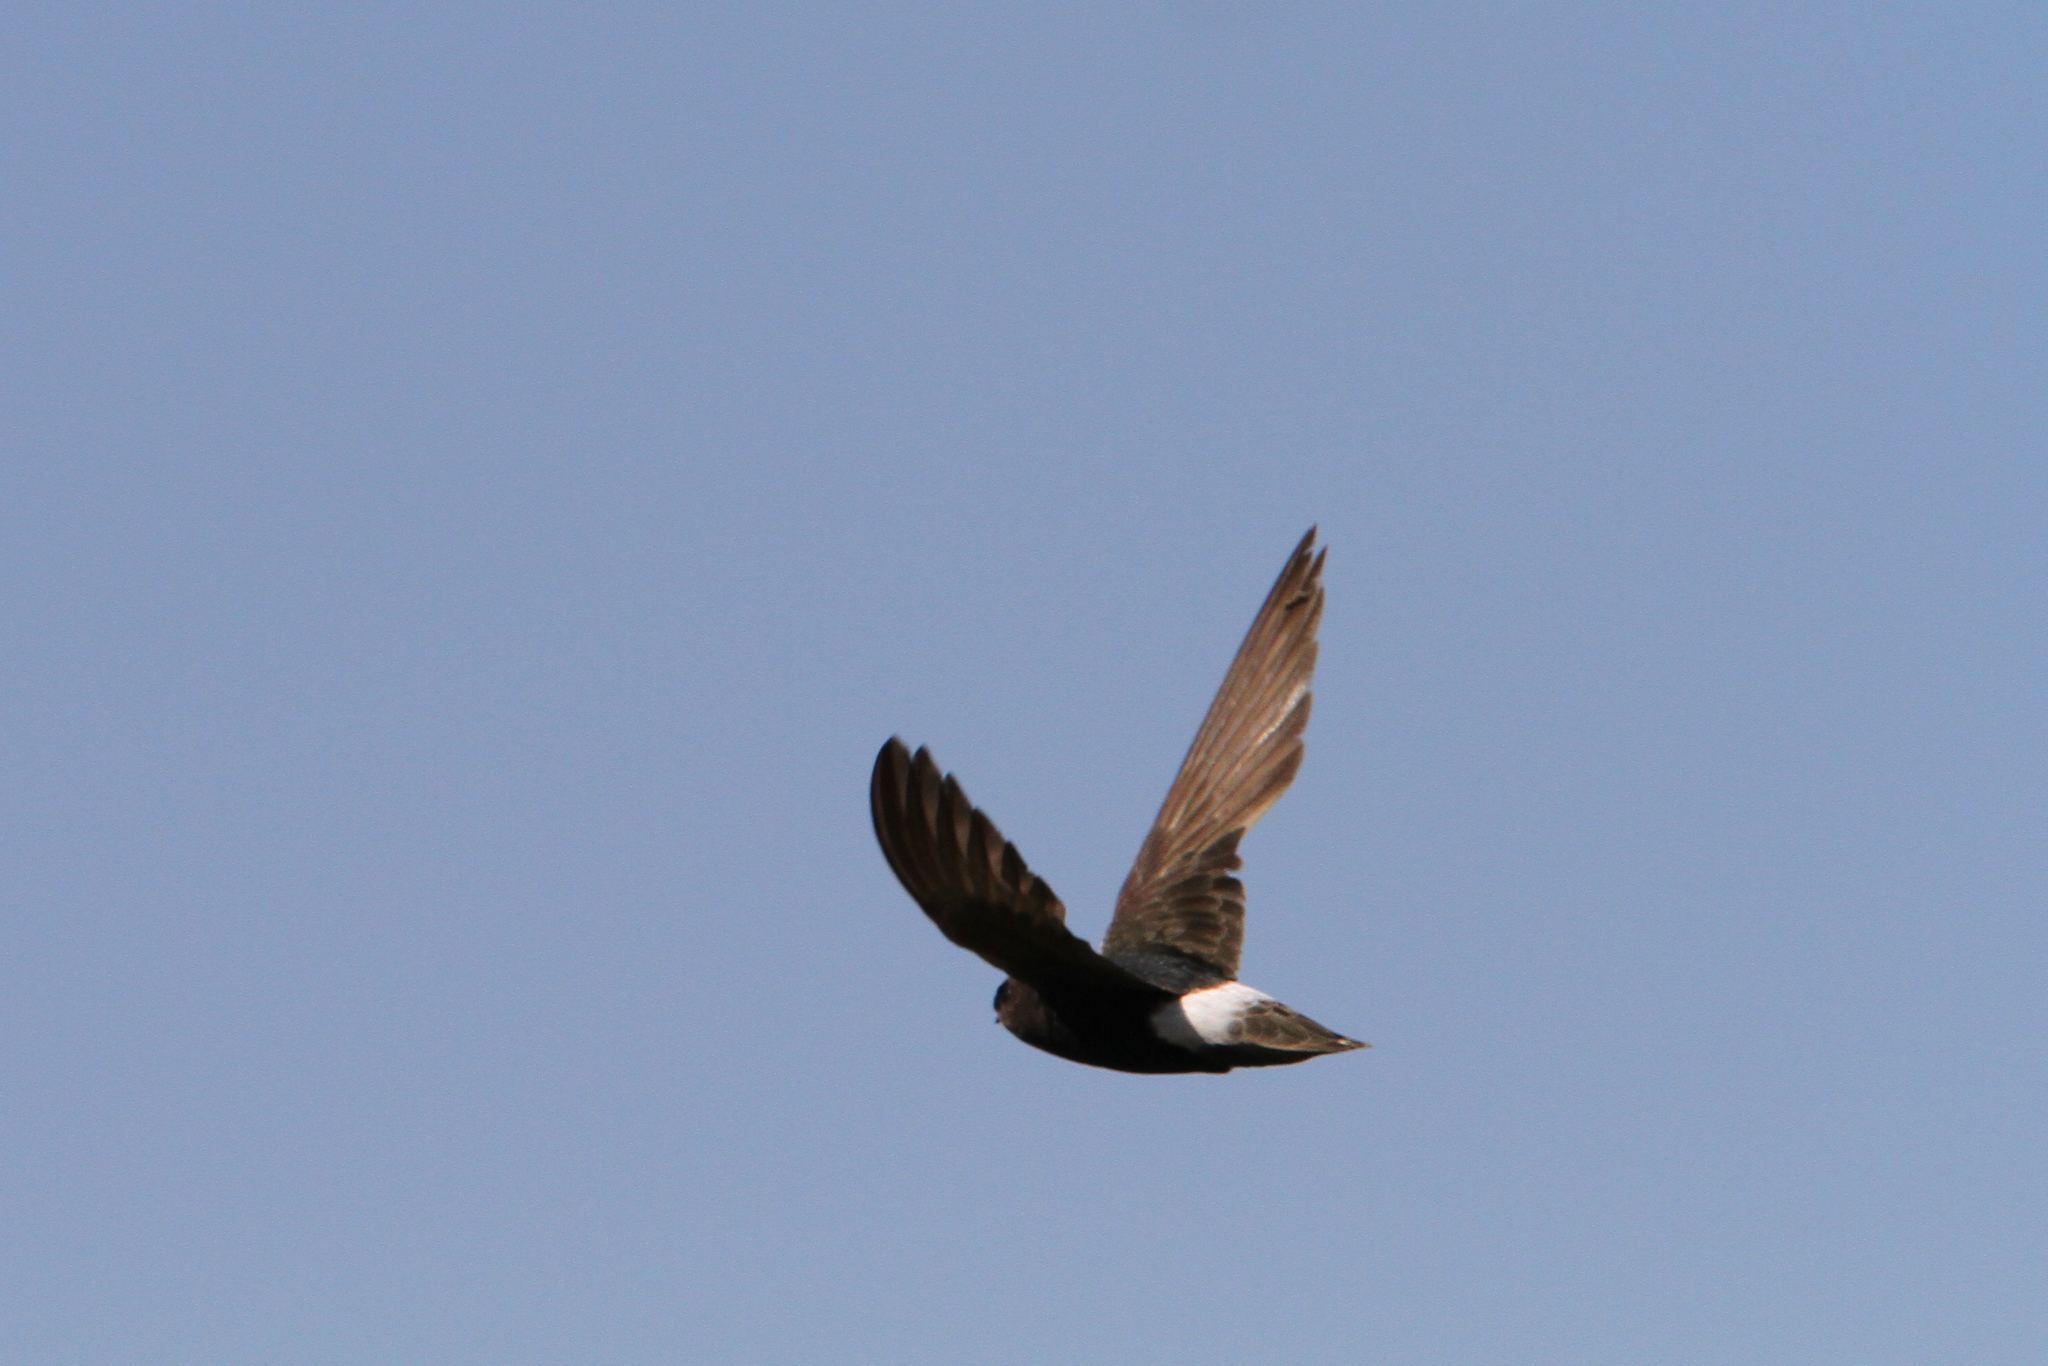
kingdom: Animalia
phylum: Chordata
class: Aves
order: Apodiformes
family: Apodidae
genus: Apus
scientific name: Apus affinis
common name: Little swift
